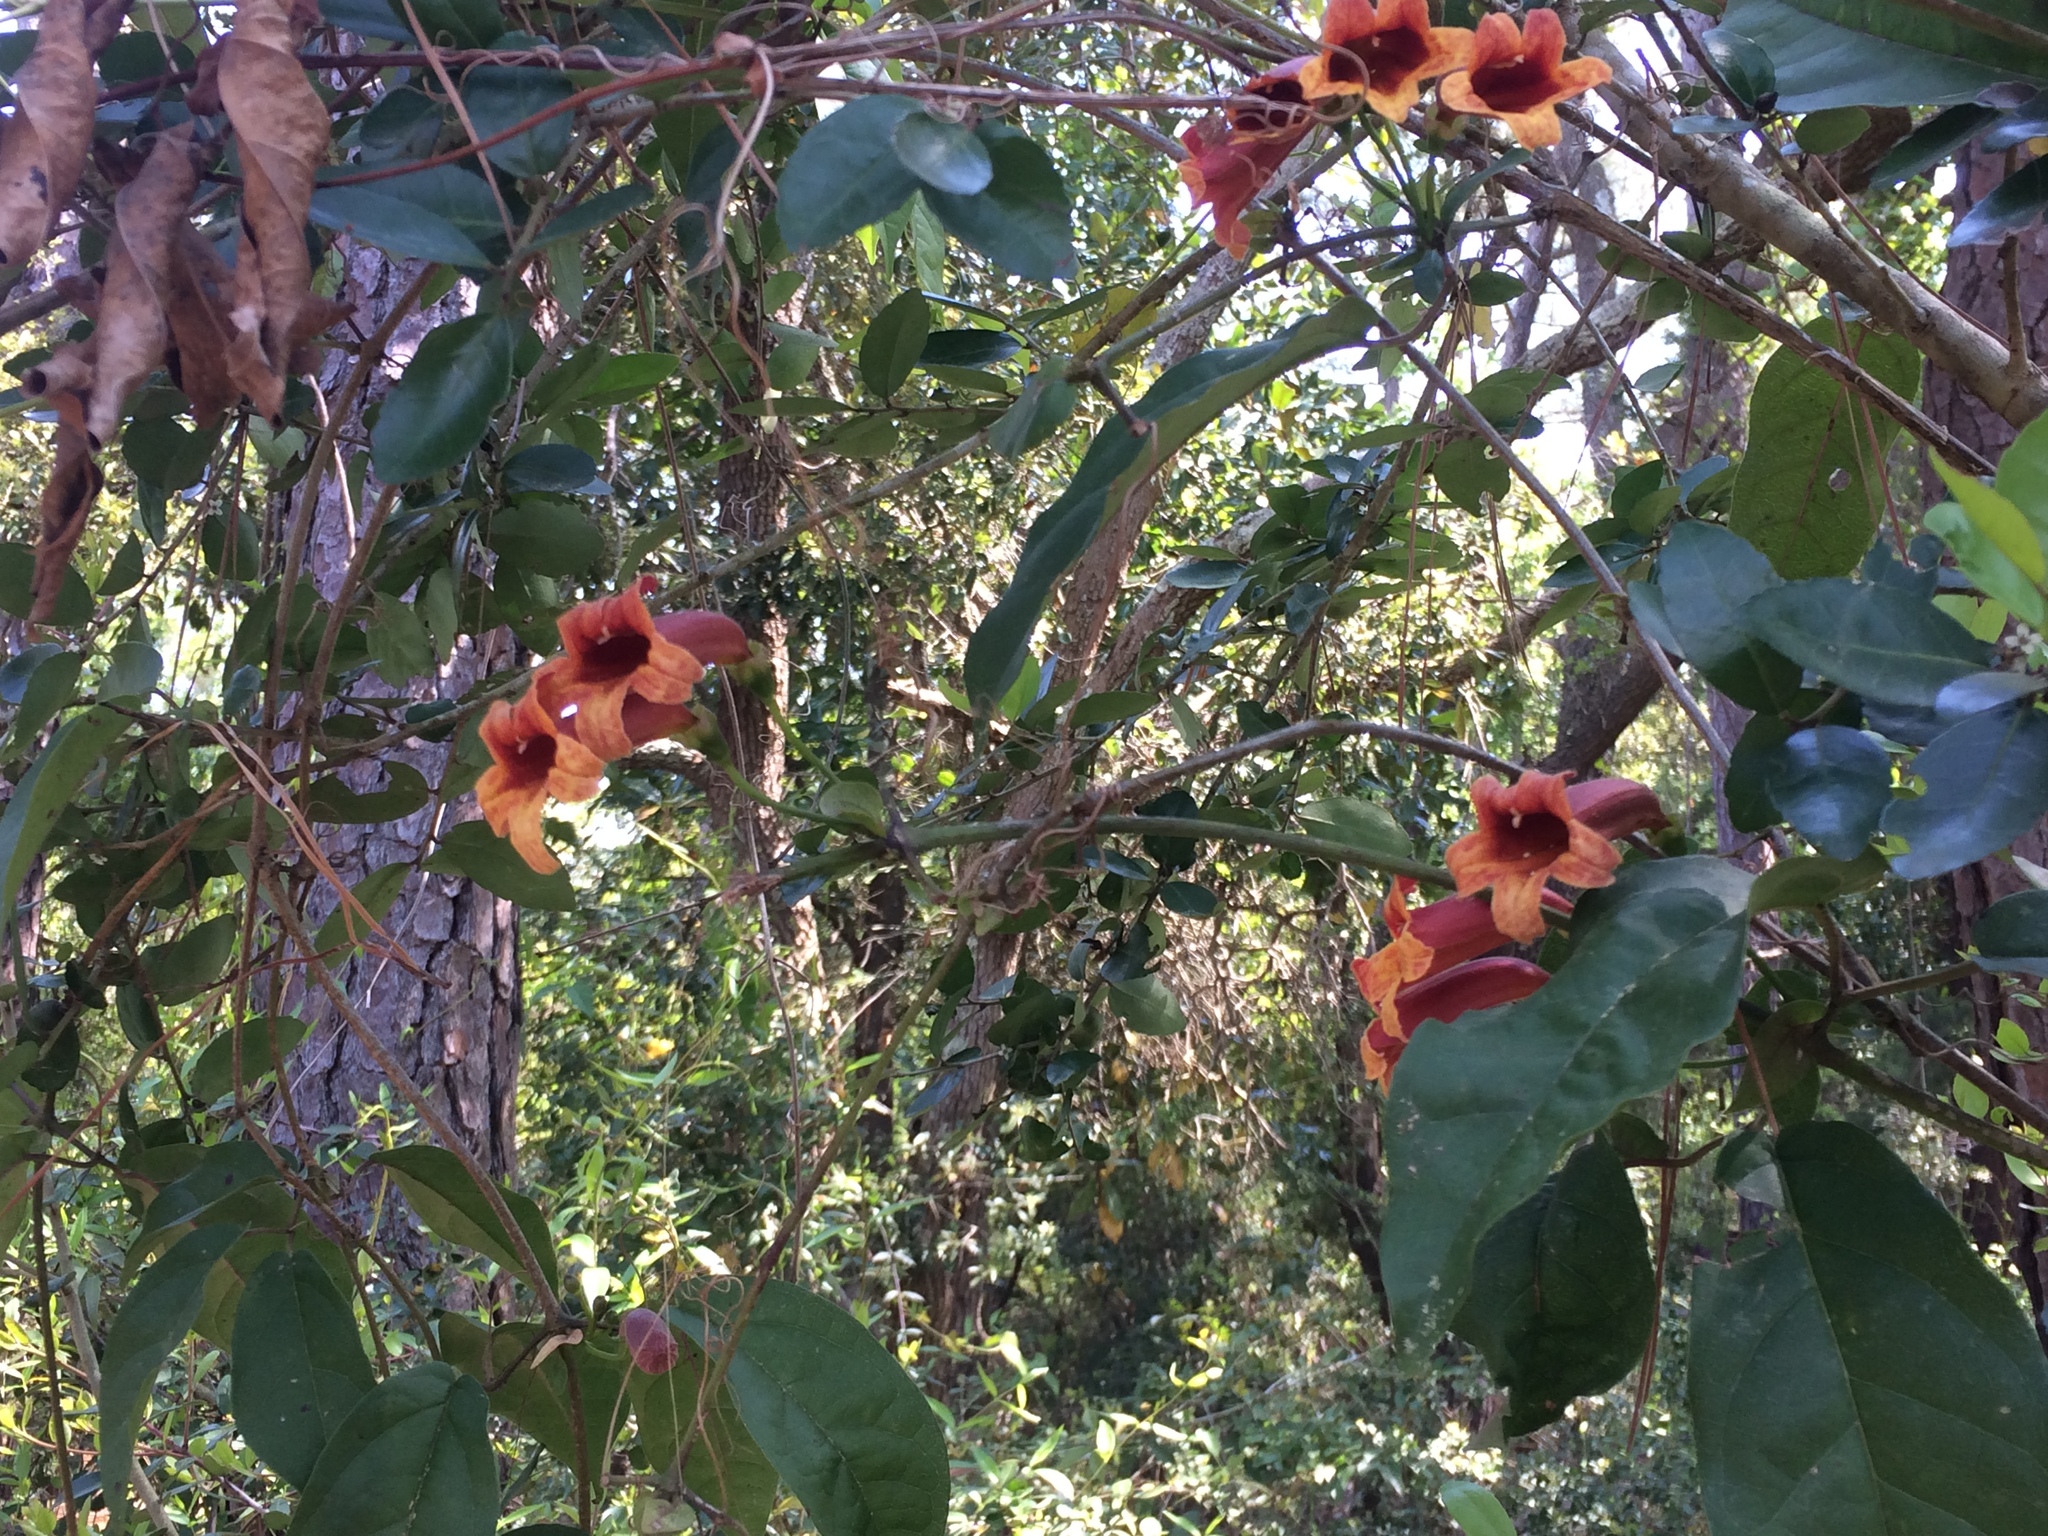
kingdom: Plantae
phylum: Tracheophyta
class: Magnoliopsida
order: Lamiales
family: Bignoniaceae
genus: Bignonia
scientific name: Bignonia capreolata
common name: Crossvine
